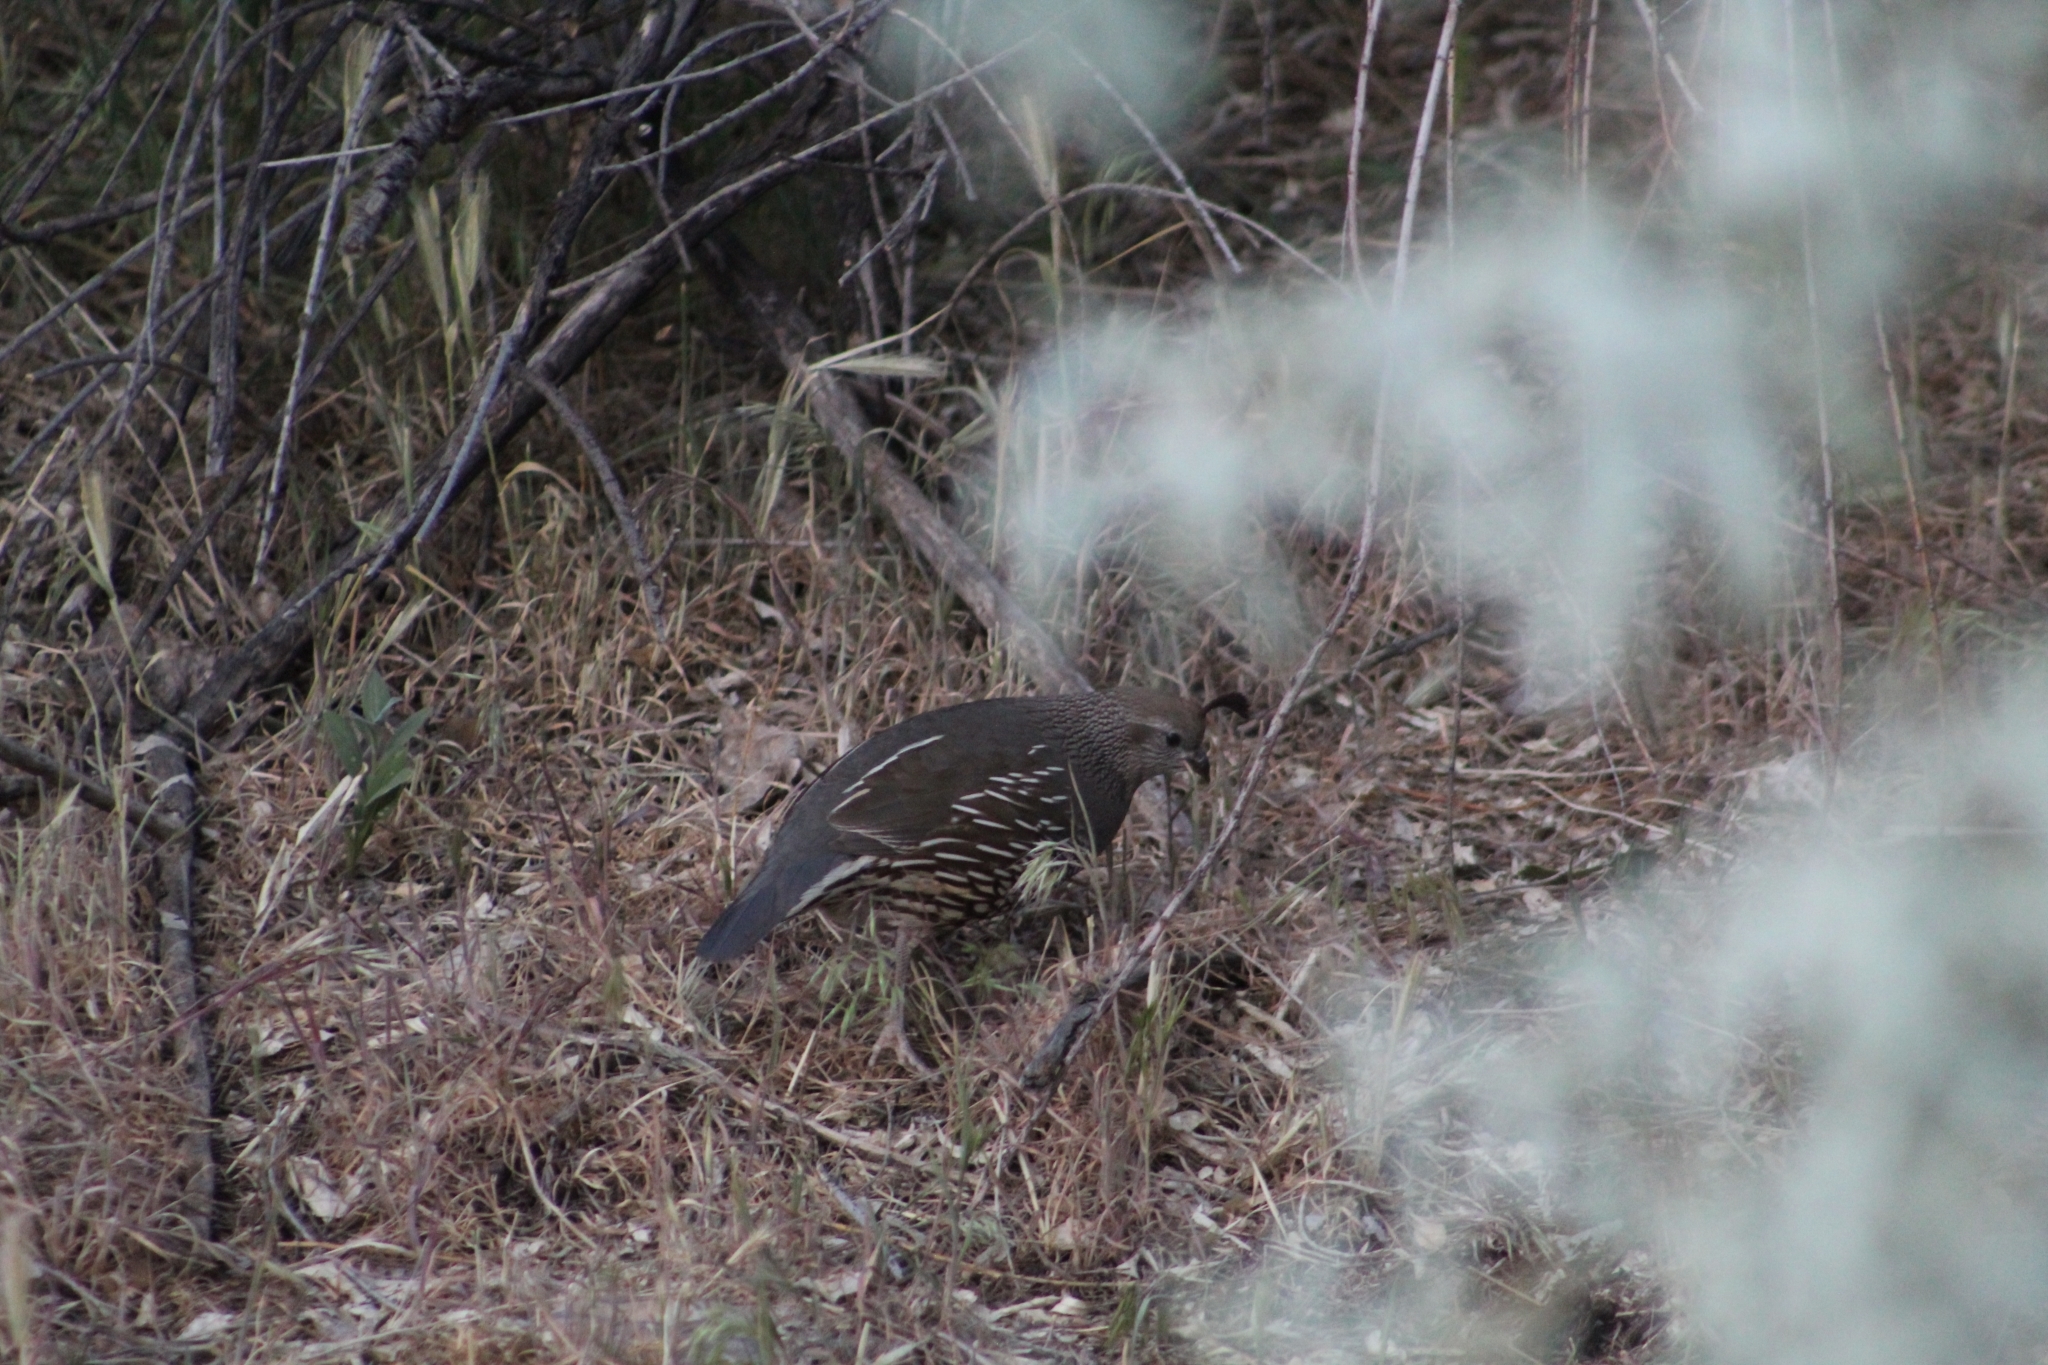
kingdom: Animalia
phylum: Chordata
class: Aves
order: Galliformes
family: Odontophoridae
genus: Callipepla
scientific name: Callipepla californica
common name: California quail
